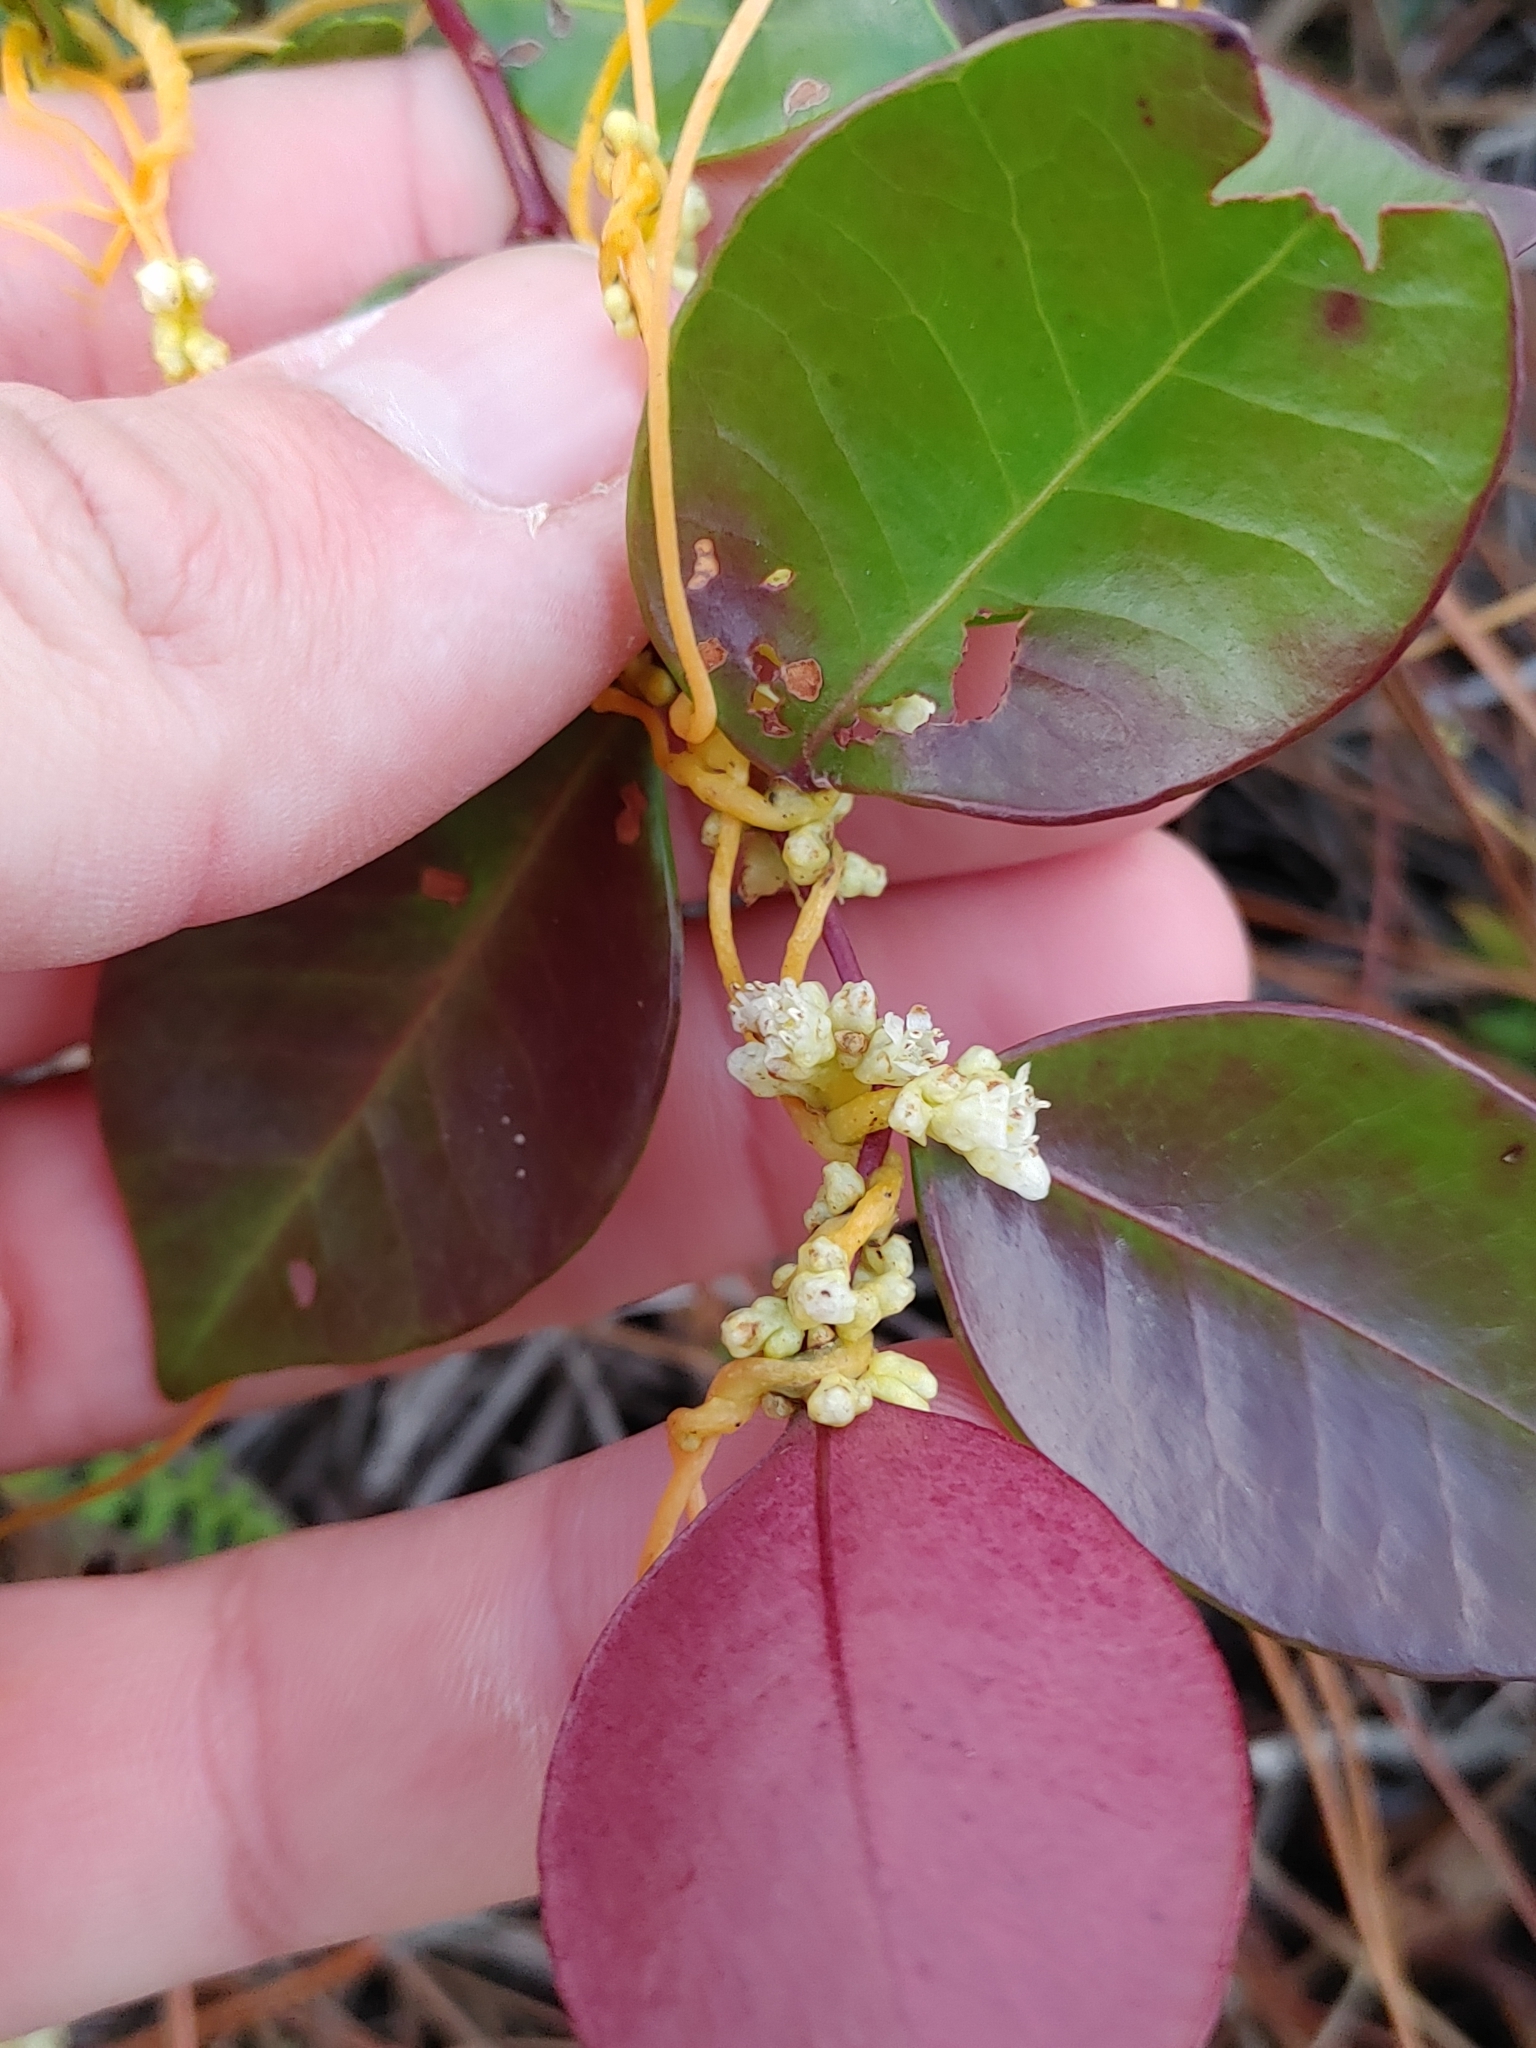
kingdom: Plantae
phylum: Tracheophyta
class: Magnoliopsida
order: Solanales
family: Convolvulaceae
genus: Cuscuta
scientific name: Cuscuta pentagona
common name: Fiveangled dodder
